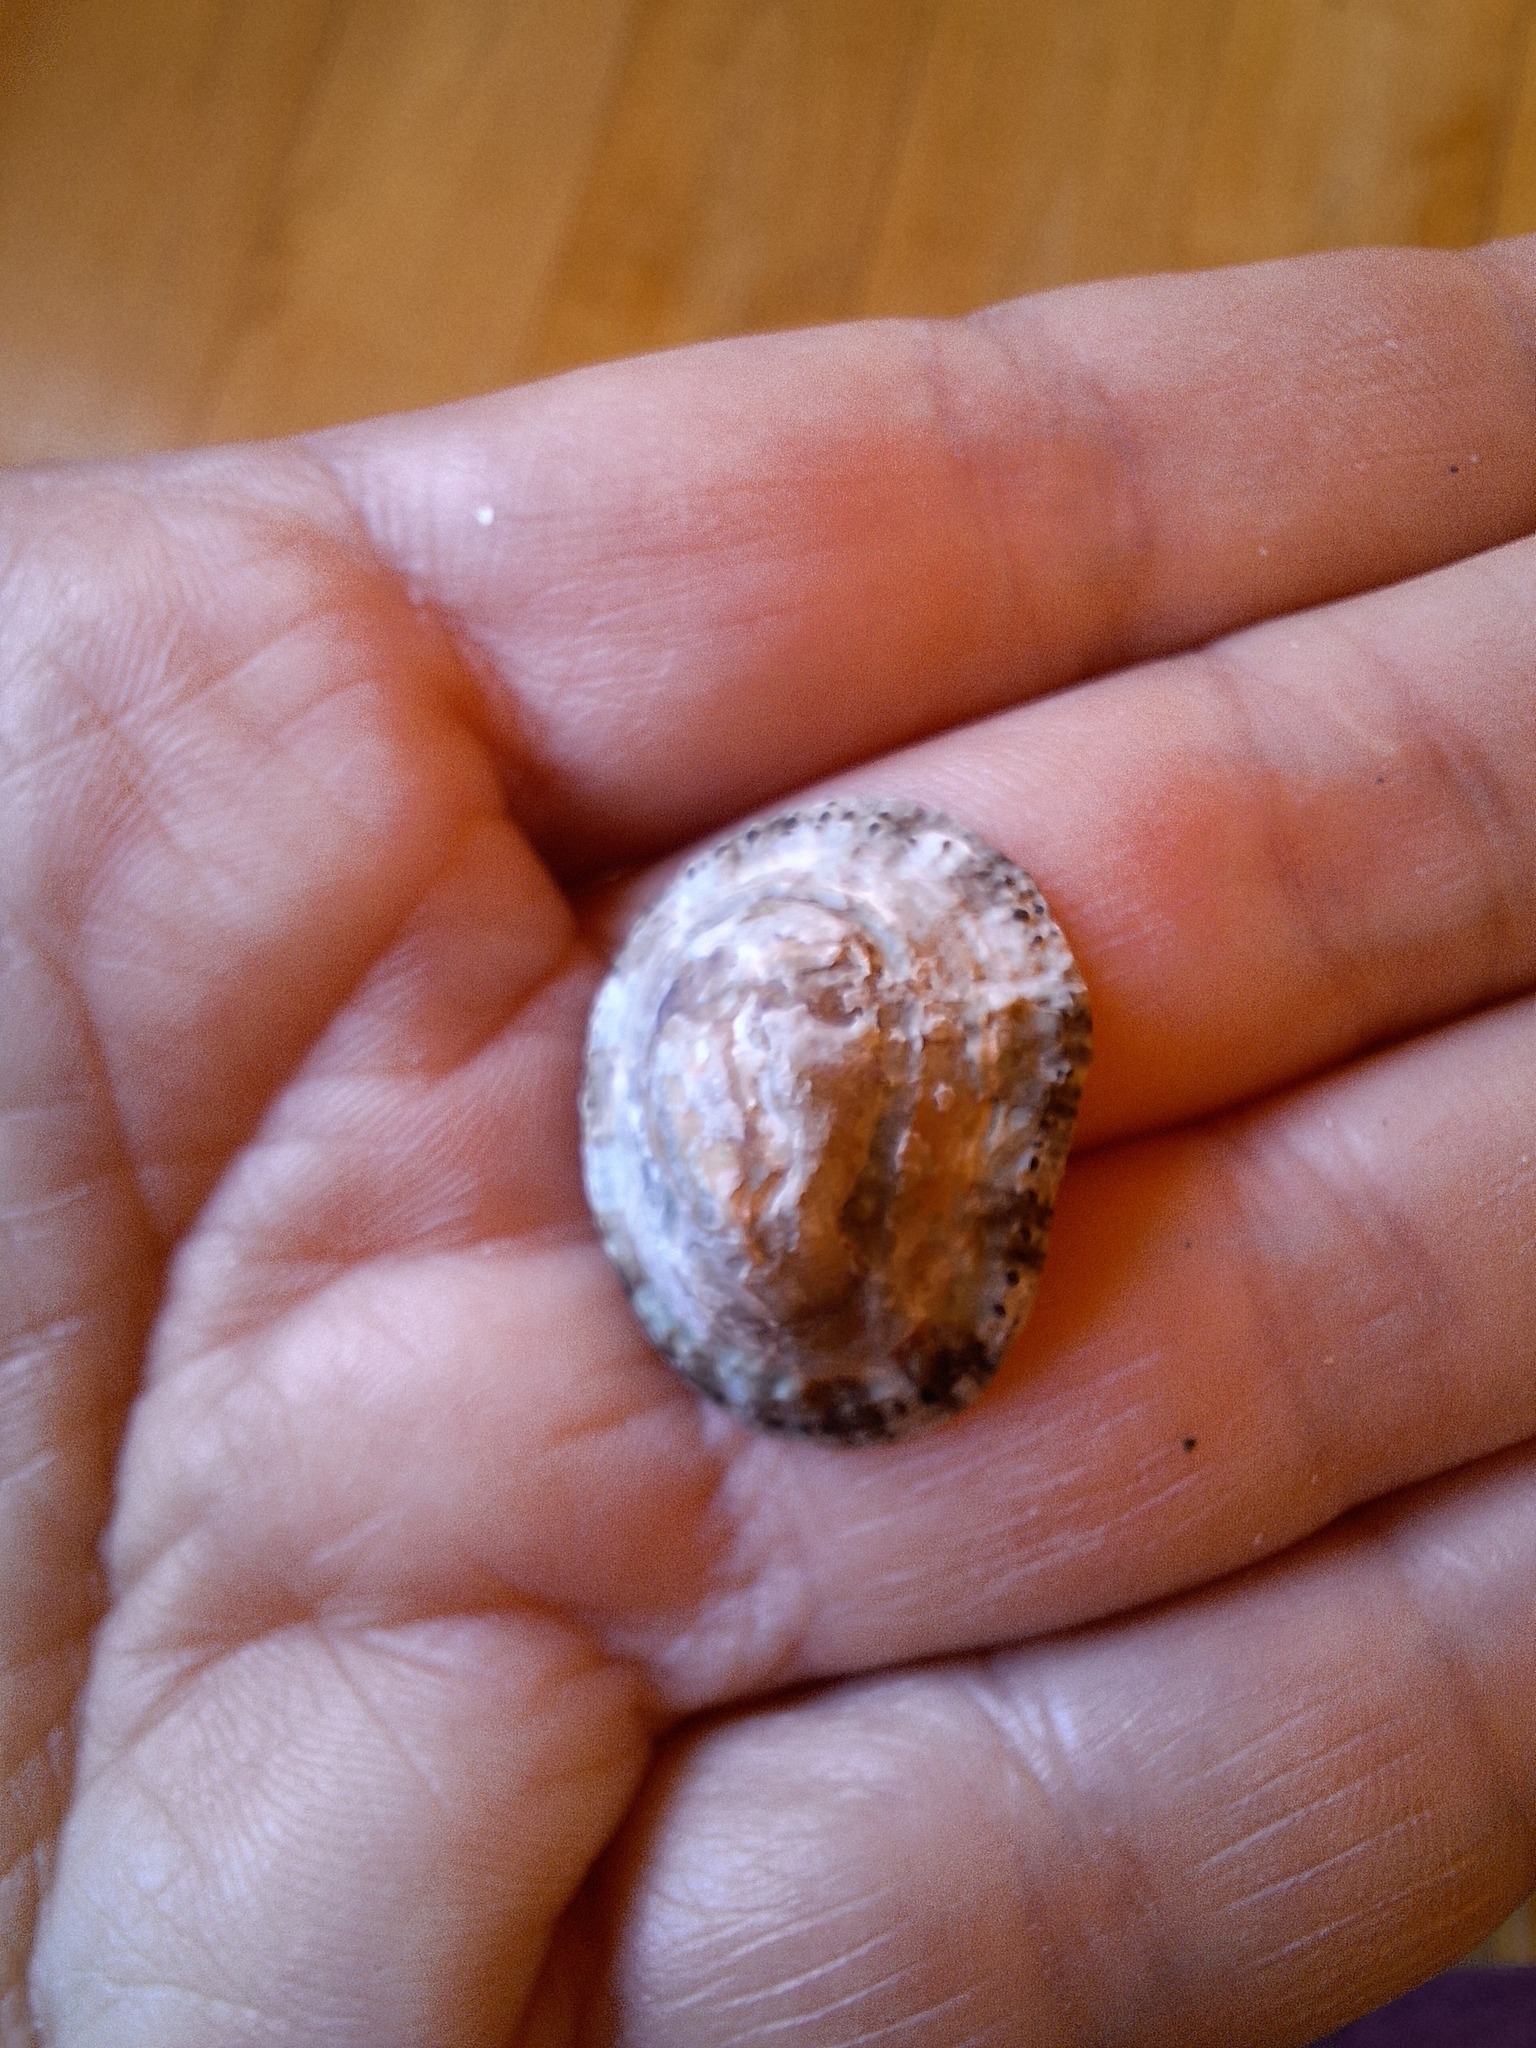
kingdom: Animalia
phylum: Mollusca
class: Gastropoda
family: Patellidae
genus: Patella
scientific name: Patella rustica
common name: Lusitanian limpet
